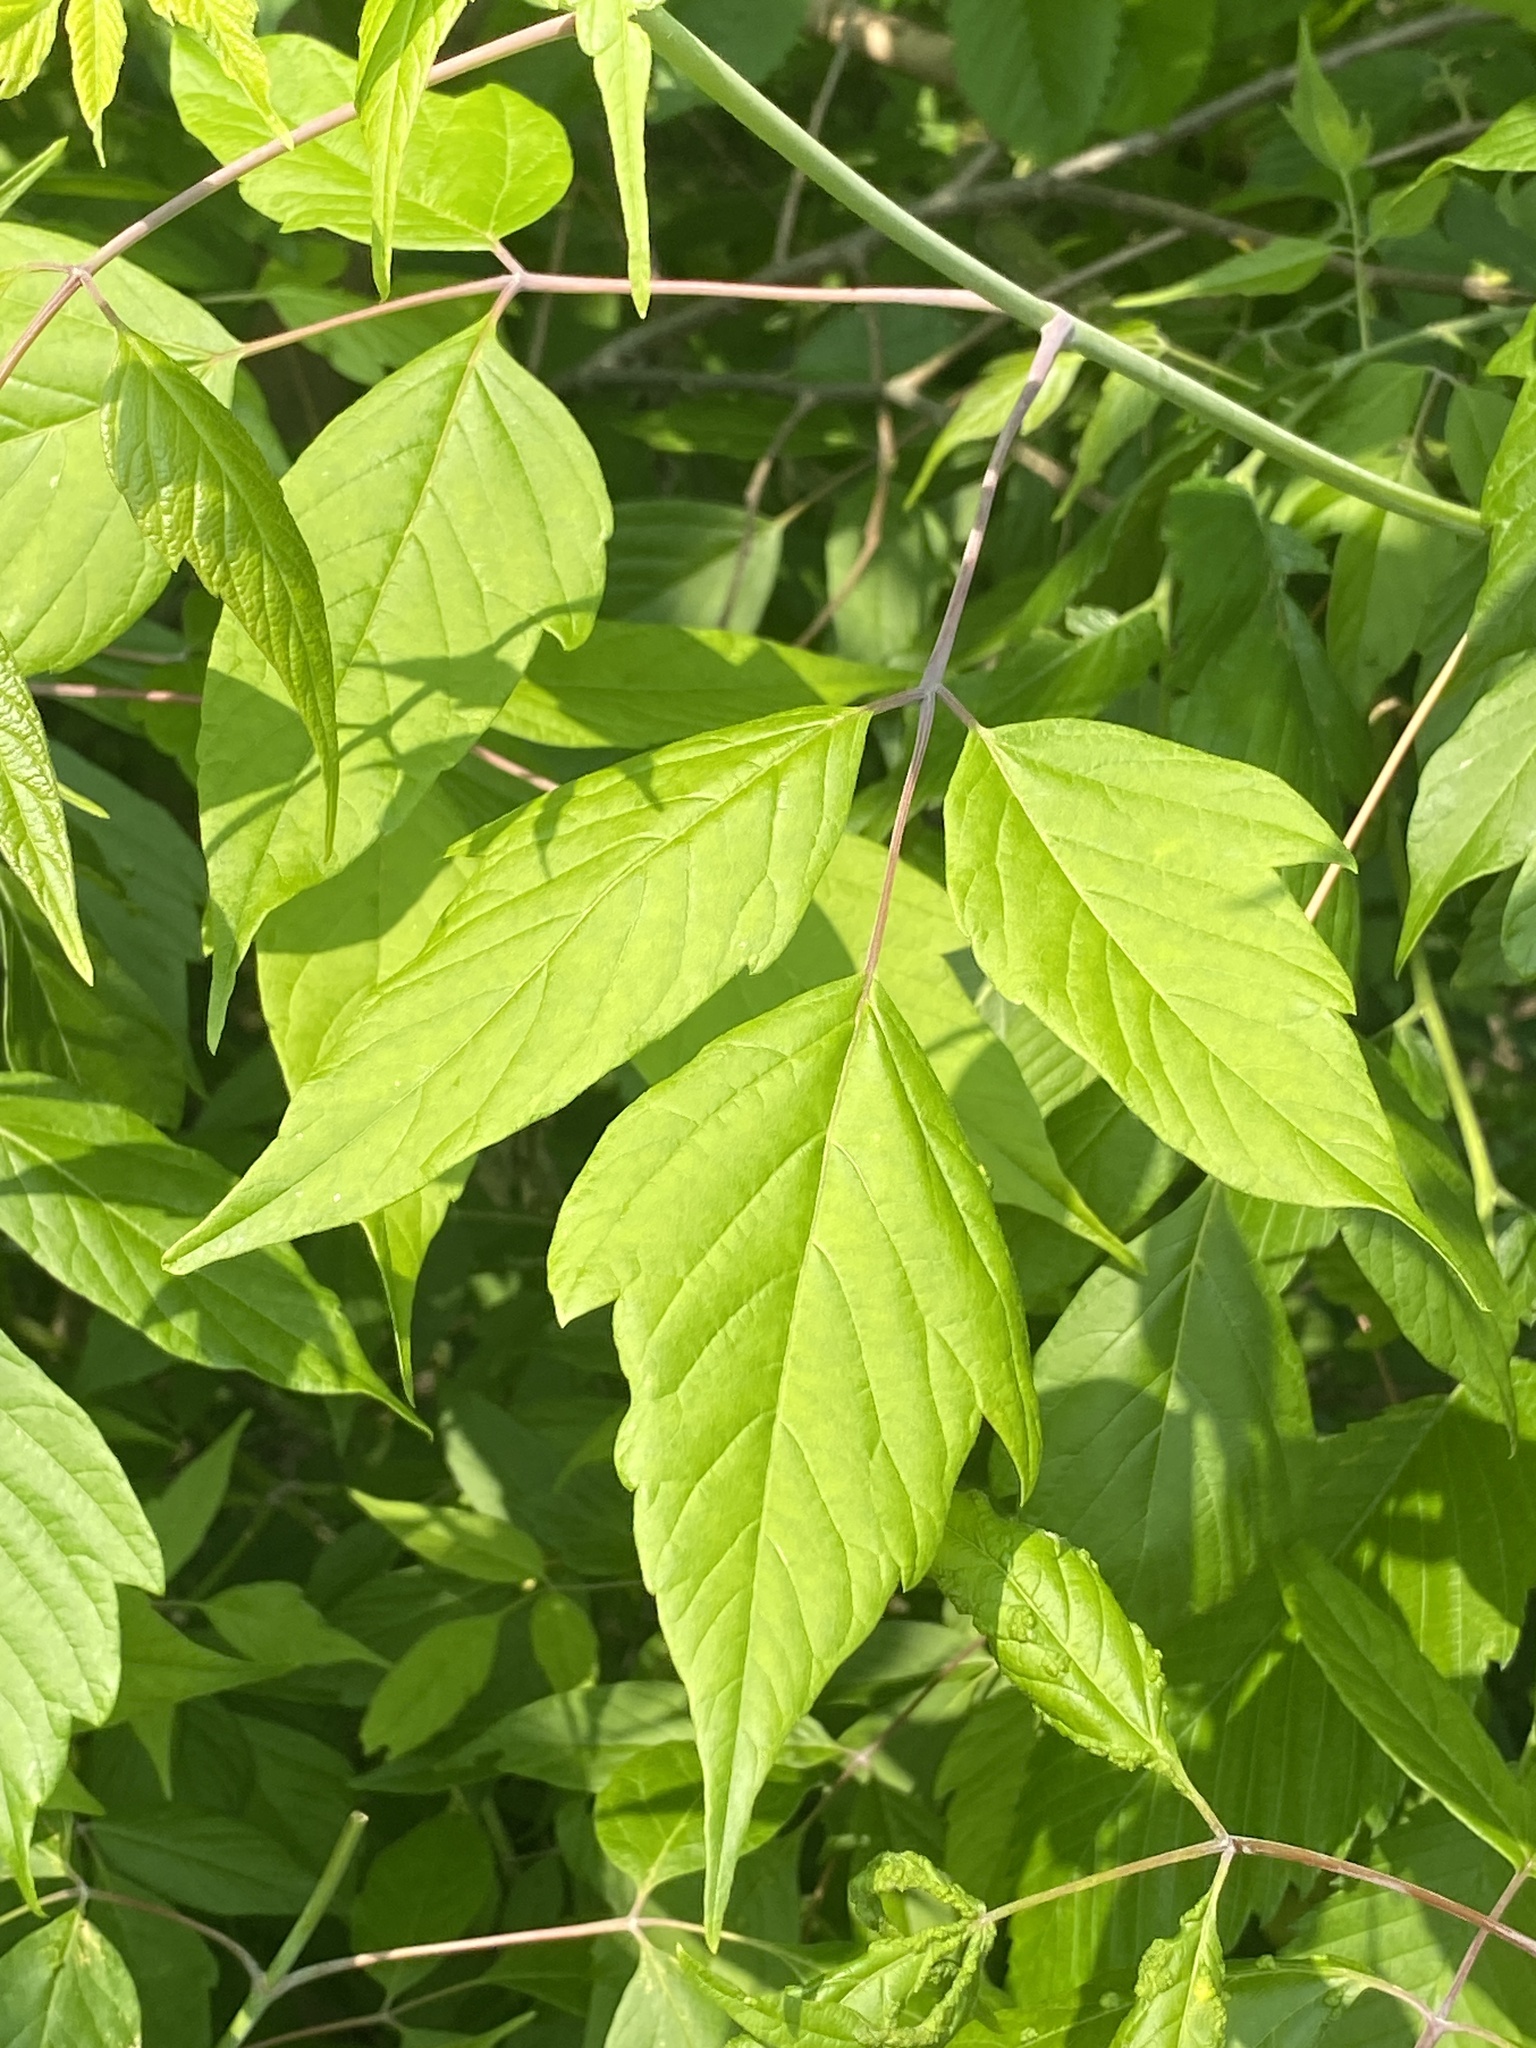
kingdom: Plantae
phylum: Tracheophyta
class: Magnoliopsida
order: Sapindales
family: Sapindaceae
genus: Acer
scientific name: Acer negundo
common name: Ashleaf maple
